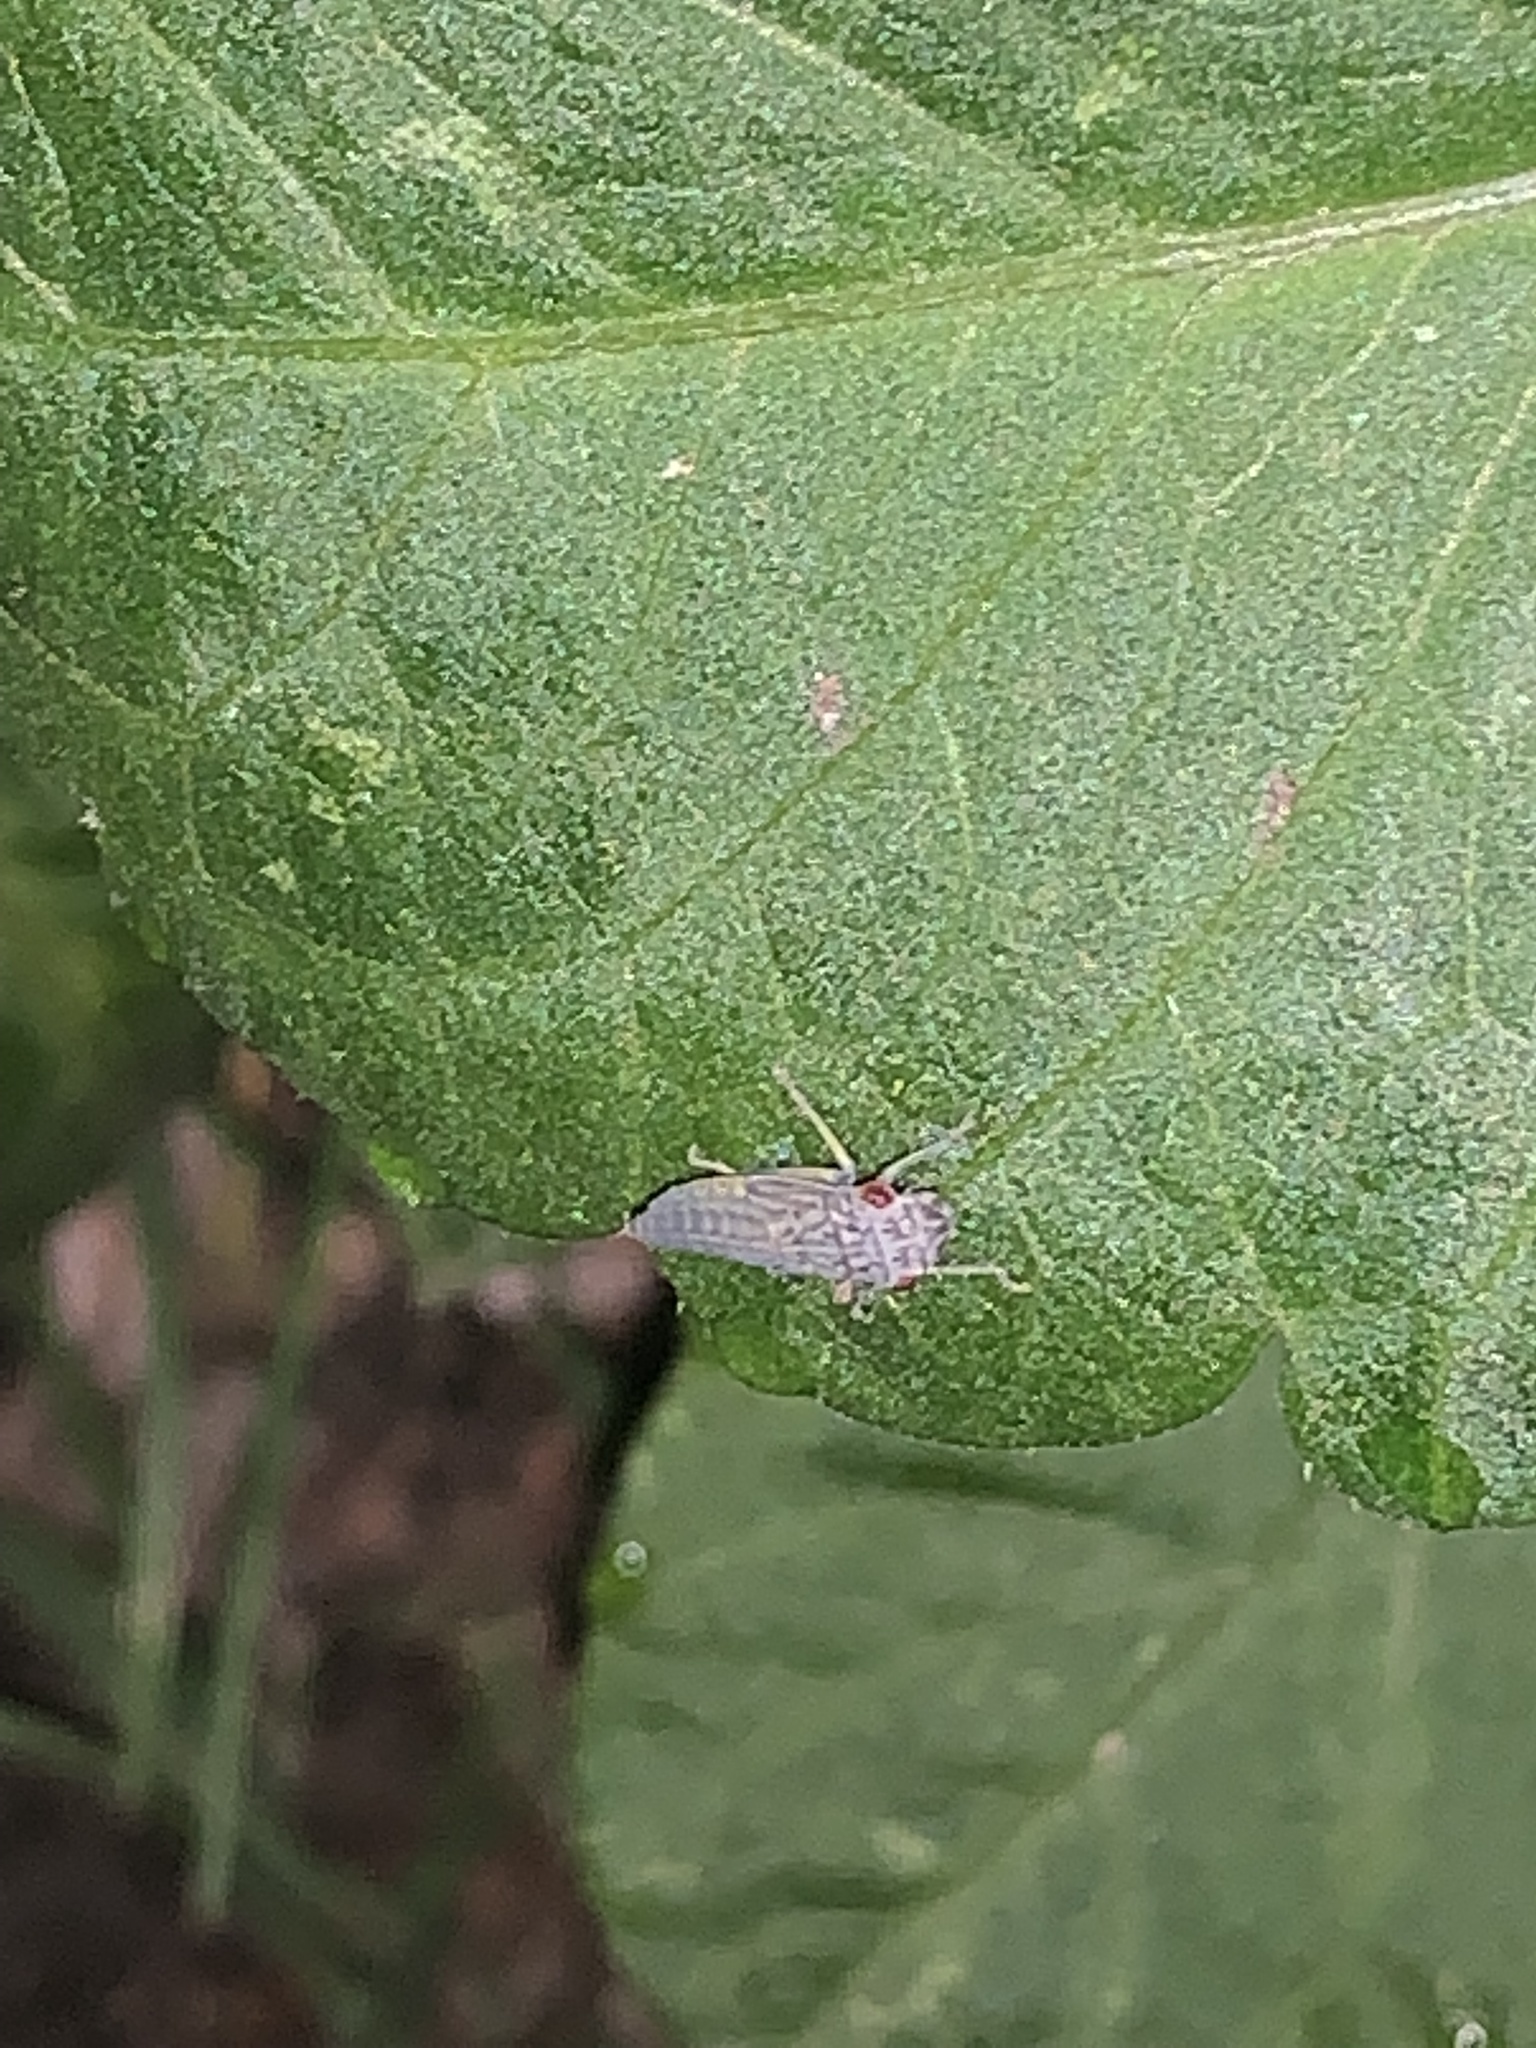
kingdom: Animalia
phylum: Arthropoda
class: Insecta
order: Hemiptera
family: Cicadellidae
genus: Oncometopia
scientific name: Oncometopia orbona
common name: Broad-headed sharpshooter
